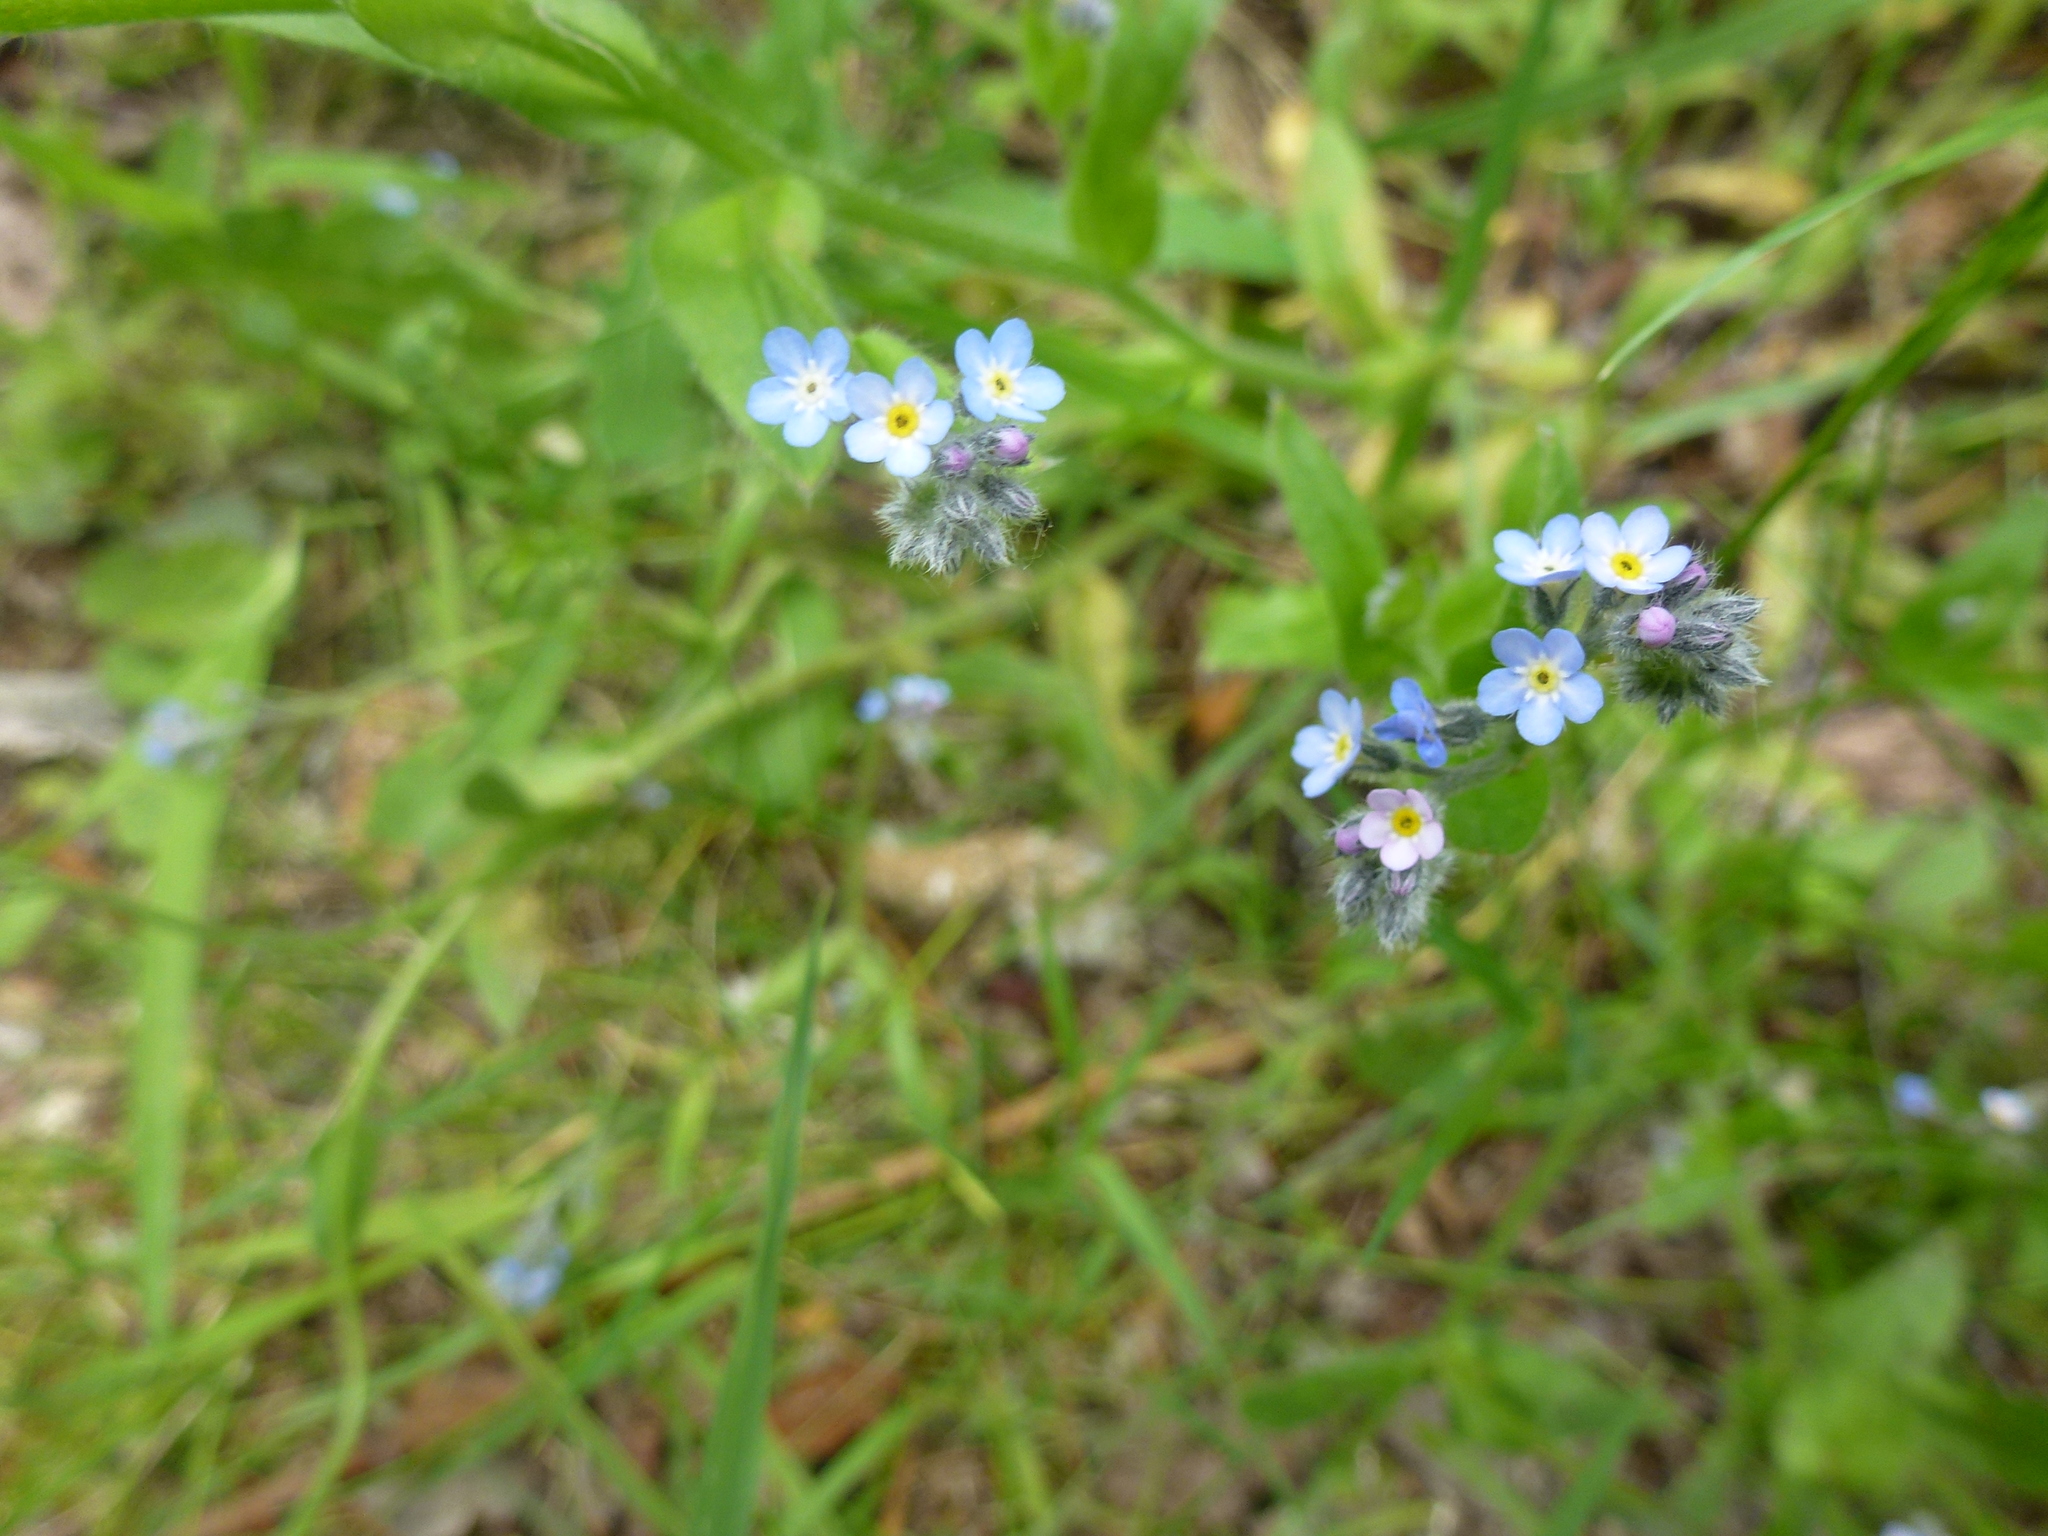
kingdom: Plantae
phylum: Tracheophyta
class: Magnoliopsida
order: Boraginales
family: Boraginaceae
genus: Myosotis
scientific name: Myosotis arvensis
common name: Field forget-me-not
